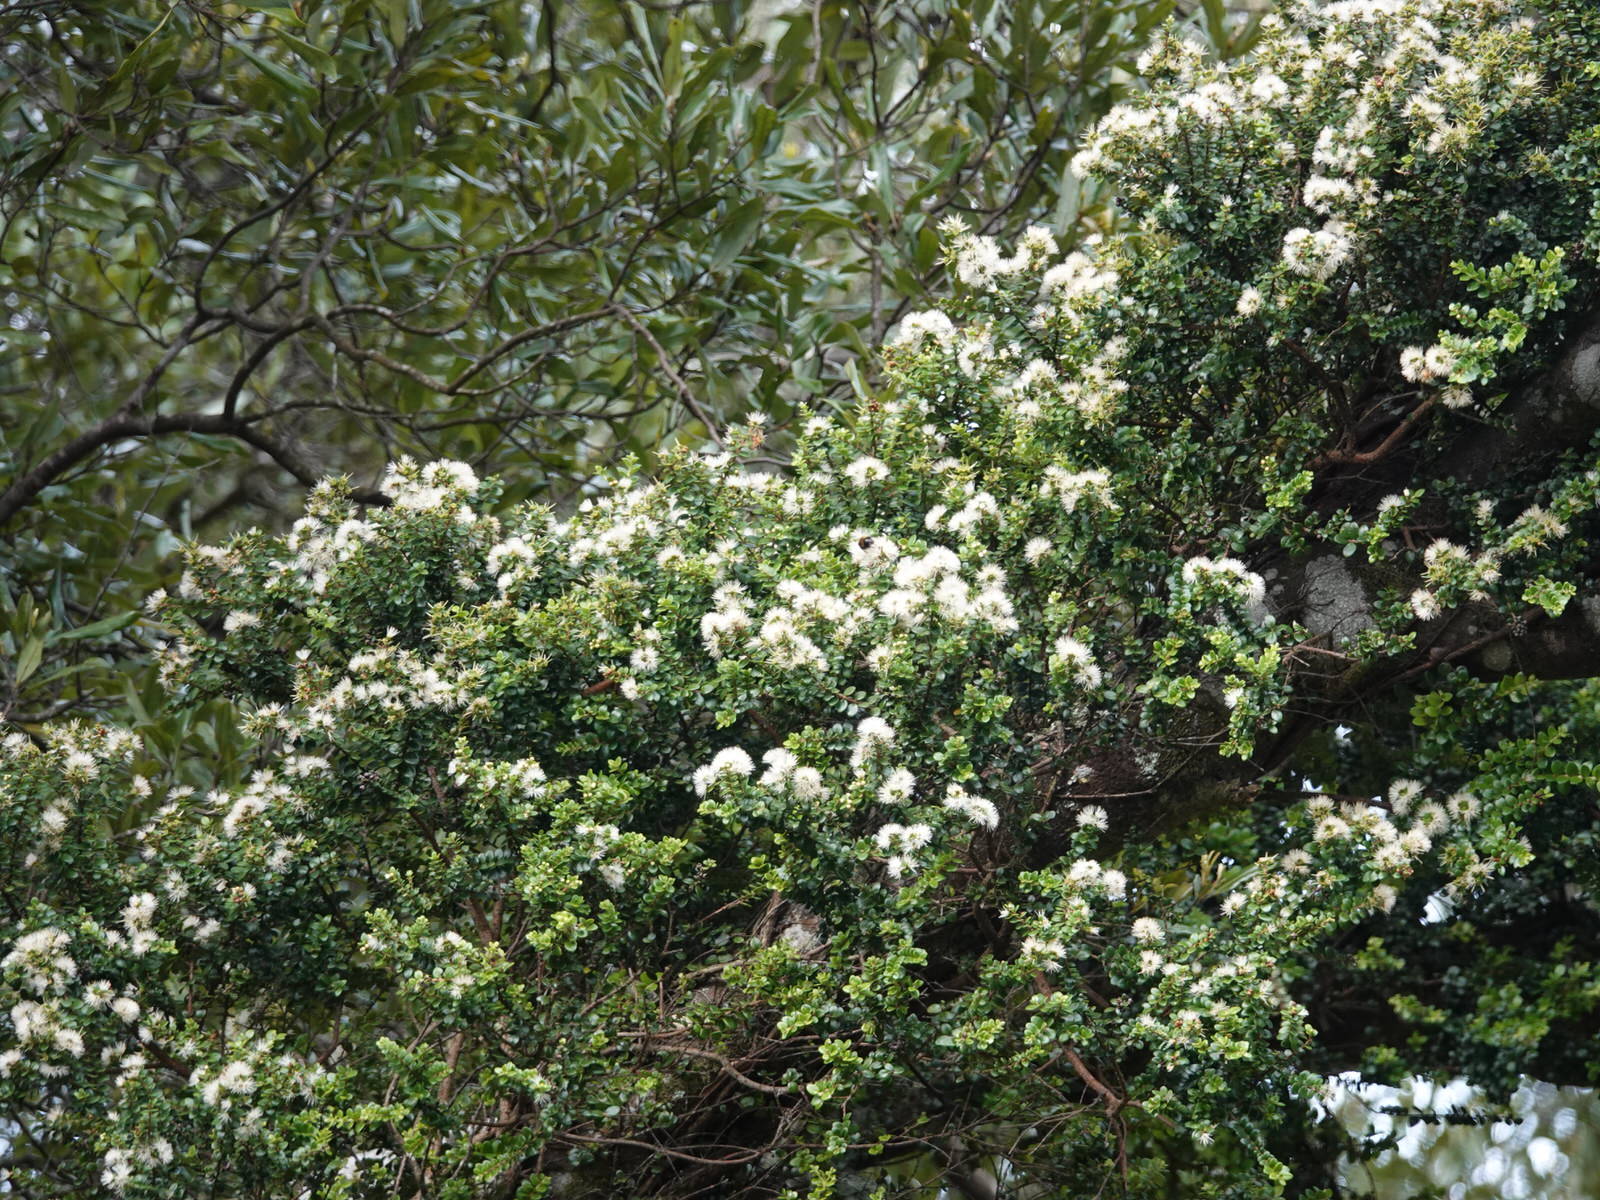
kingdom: Plantae
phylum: Tracheophyta
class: Magnoliopsida
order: Myrtales
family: Myrtaceae
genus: Metrosideros
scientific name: Metrosideros perforata
